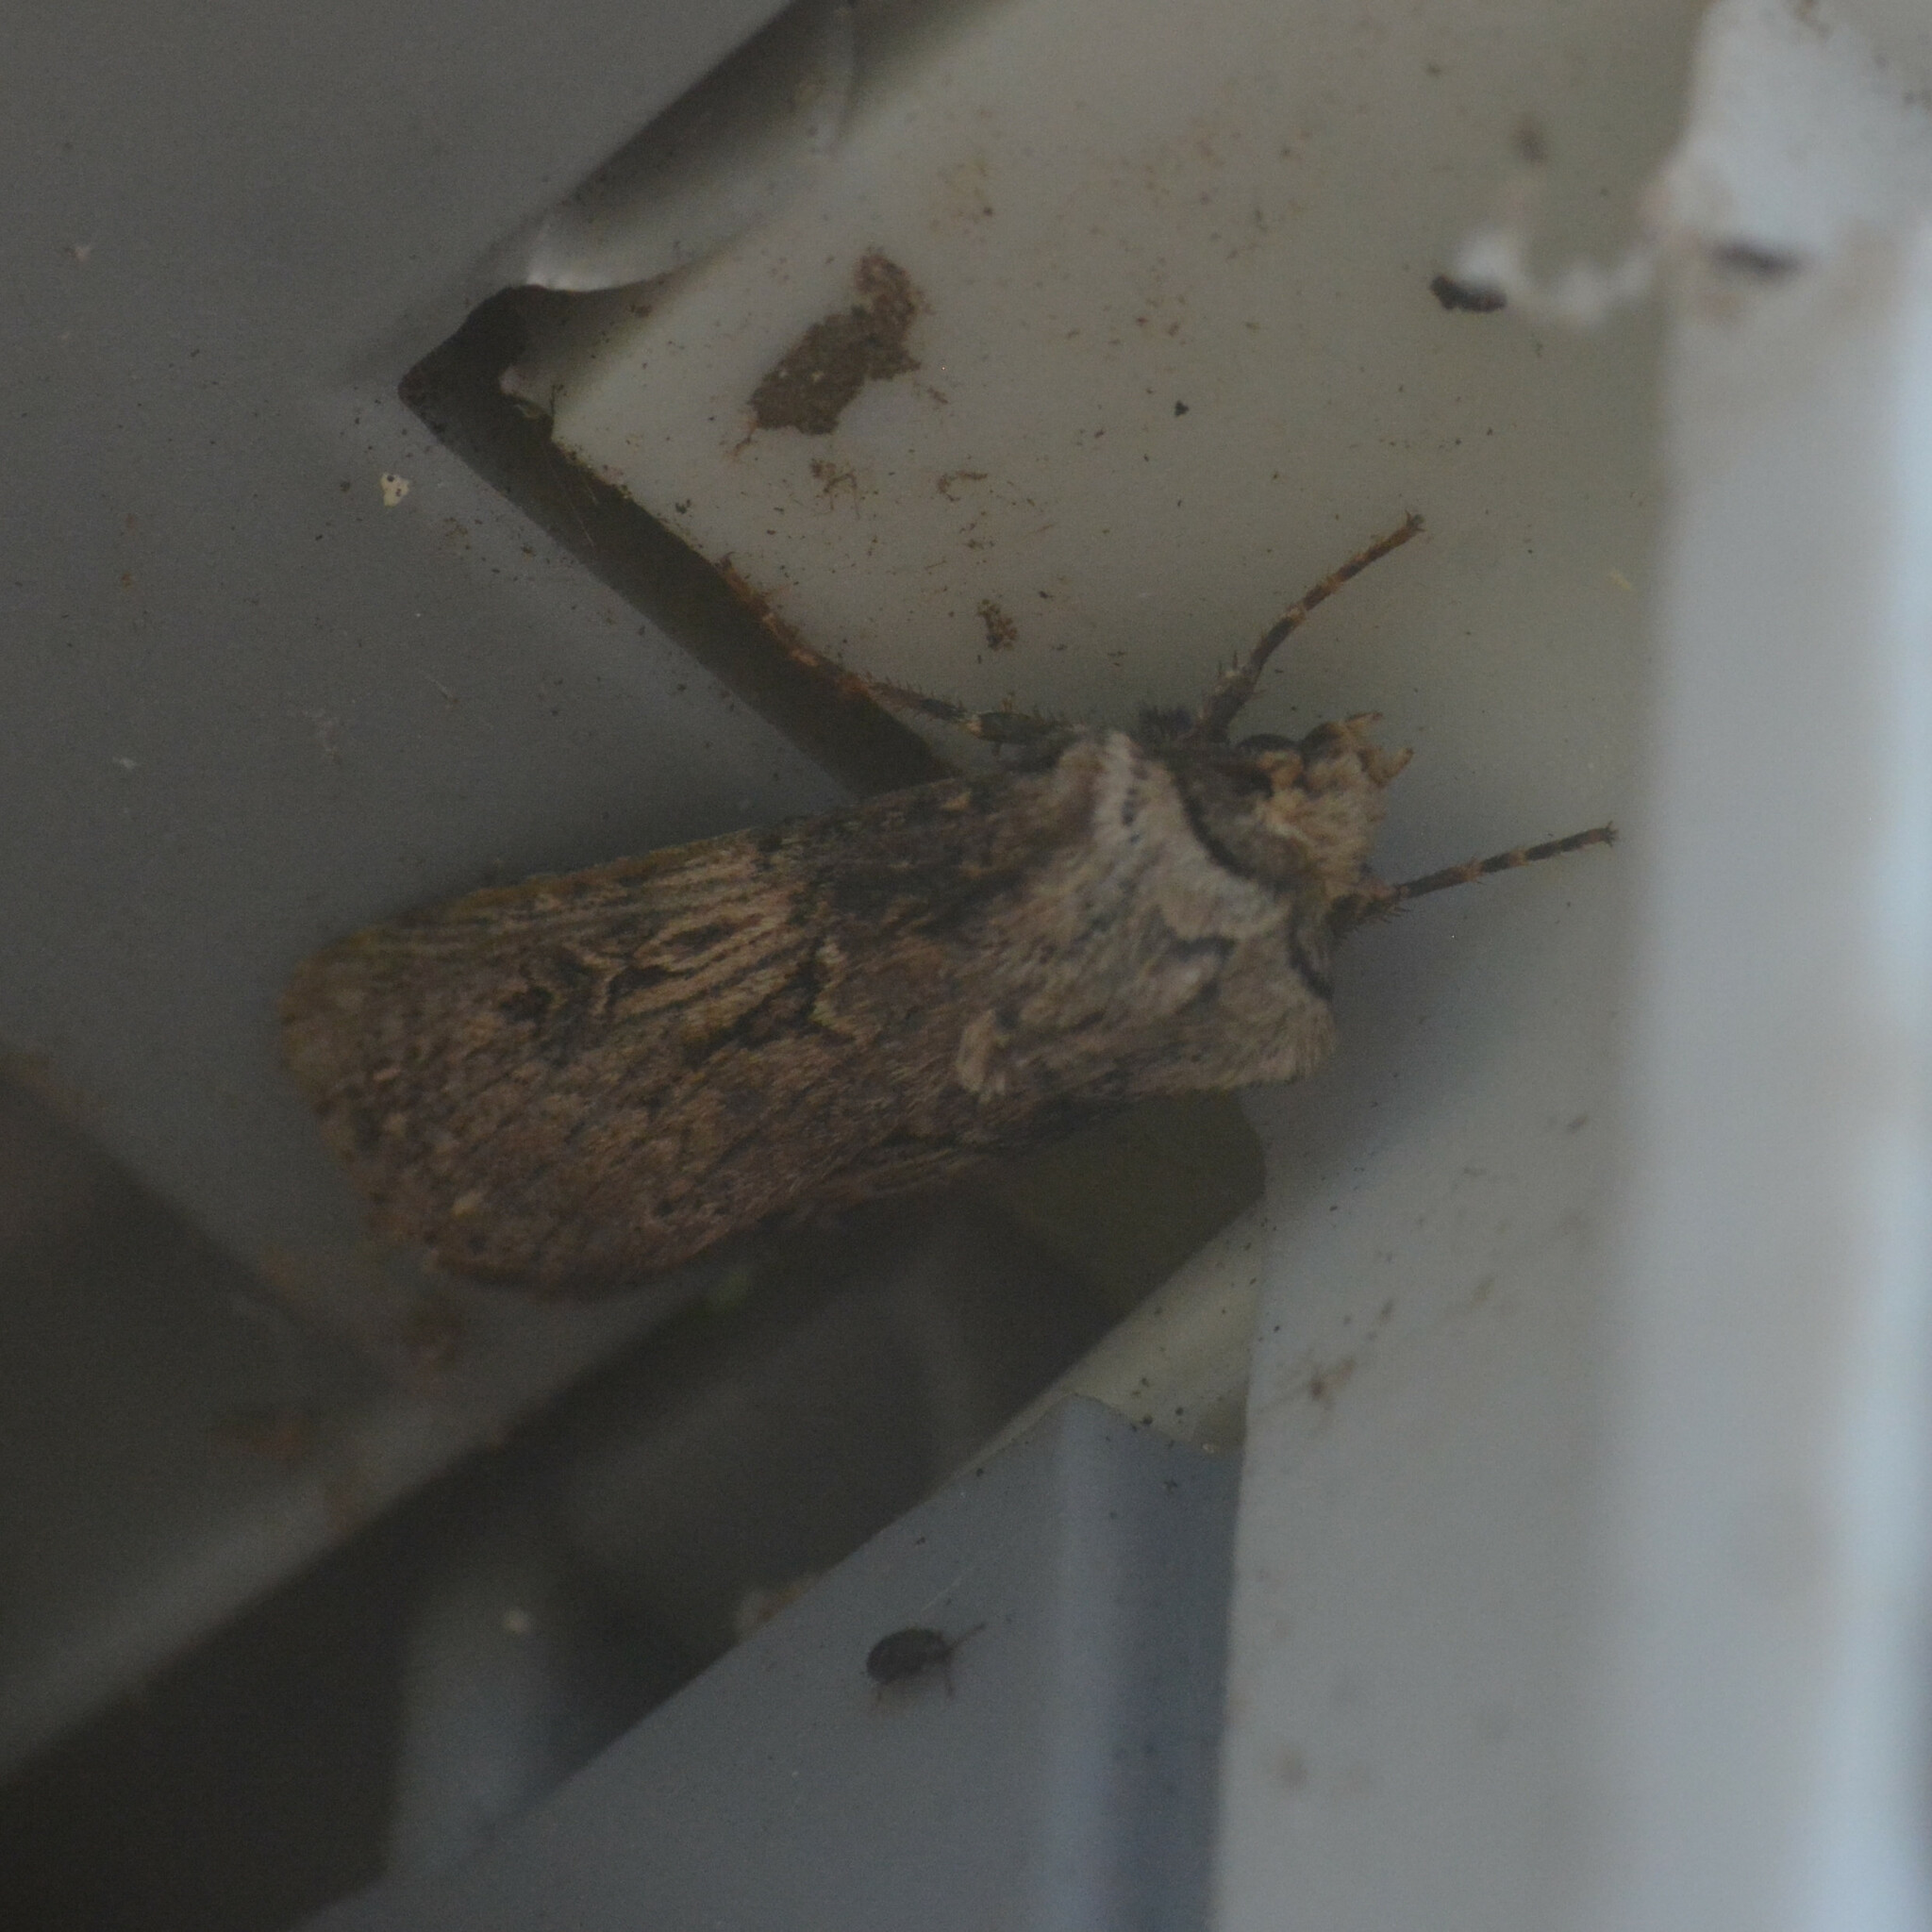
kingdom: Animalia
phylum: Arthropoda
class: Insecta
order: Lepidoptera
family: Noctuidae
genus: Agrotis
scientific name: Agrotis puta
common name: Shuttle-shaped dart
